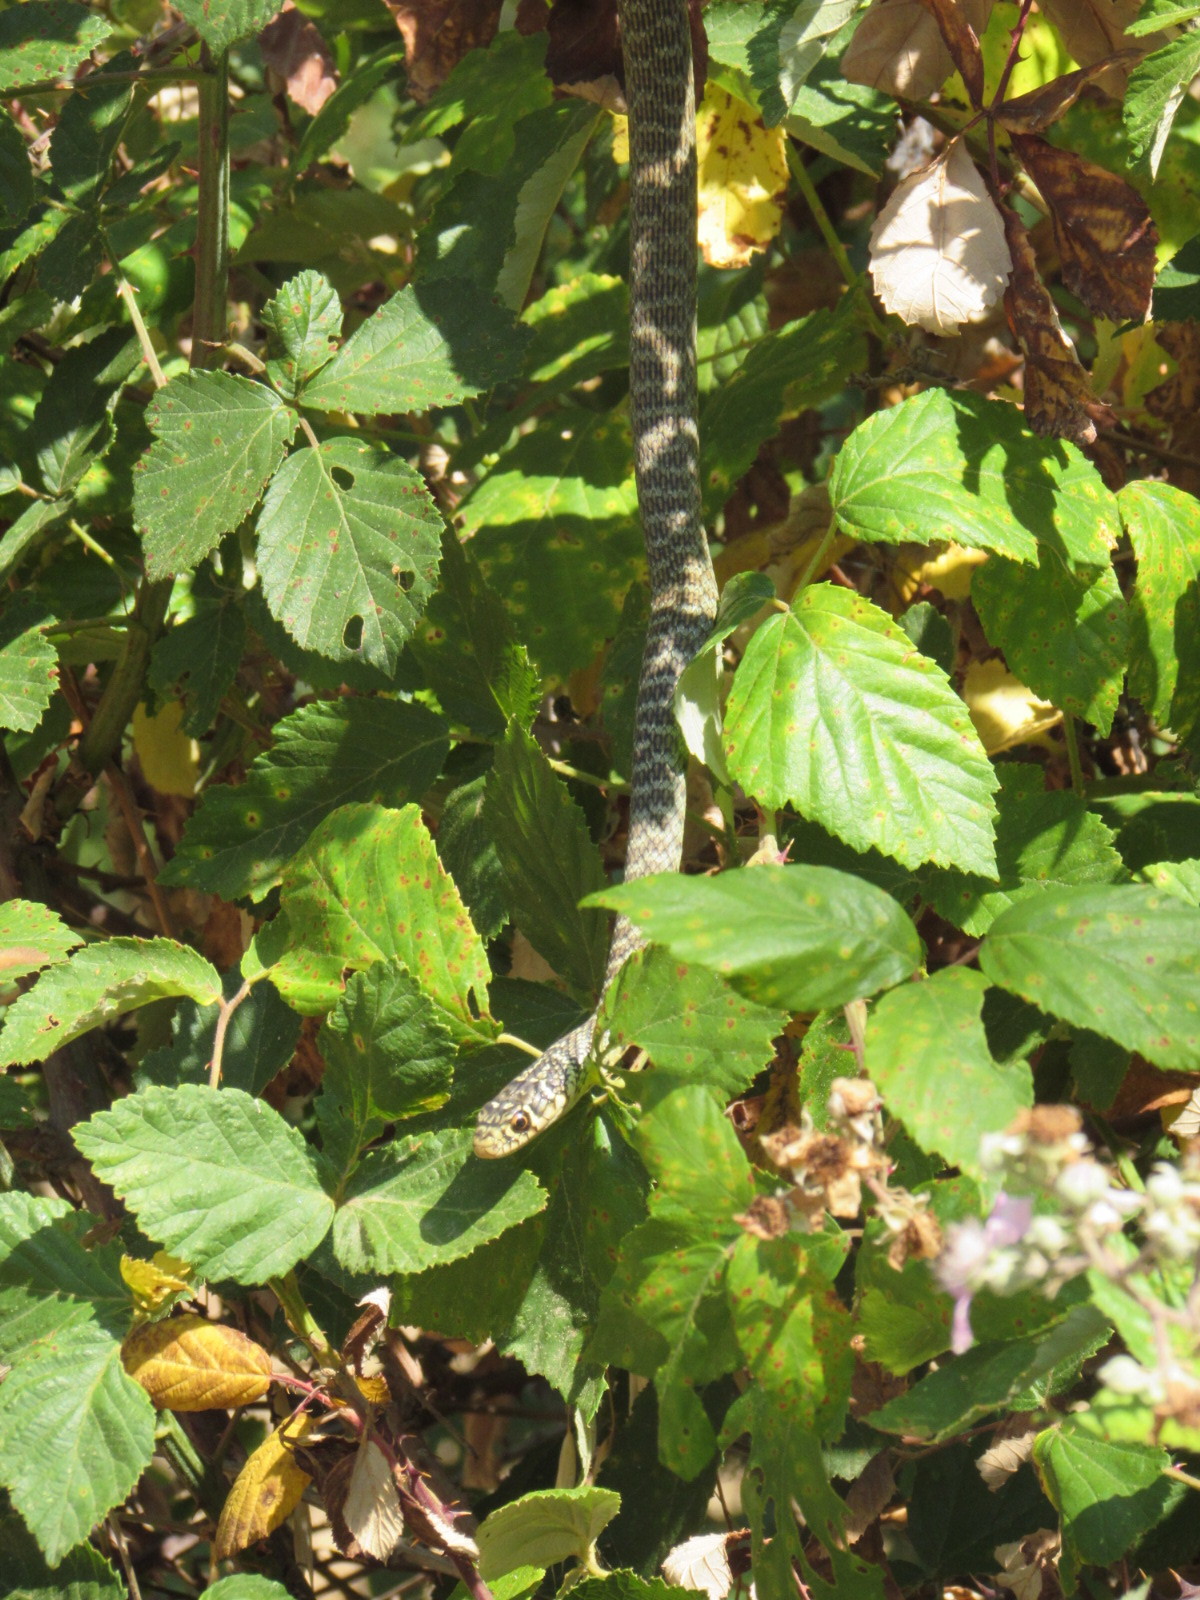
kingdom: Animalia
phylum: Chordata
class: Squamata
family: Colubridae
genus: Hierophis
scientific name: Hierophis viridiflavus
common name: Green whip snake
